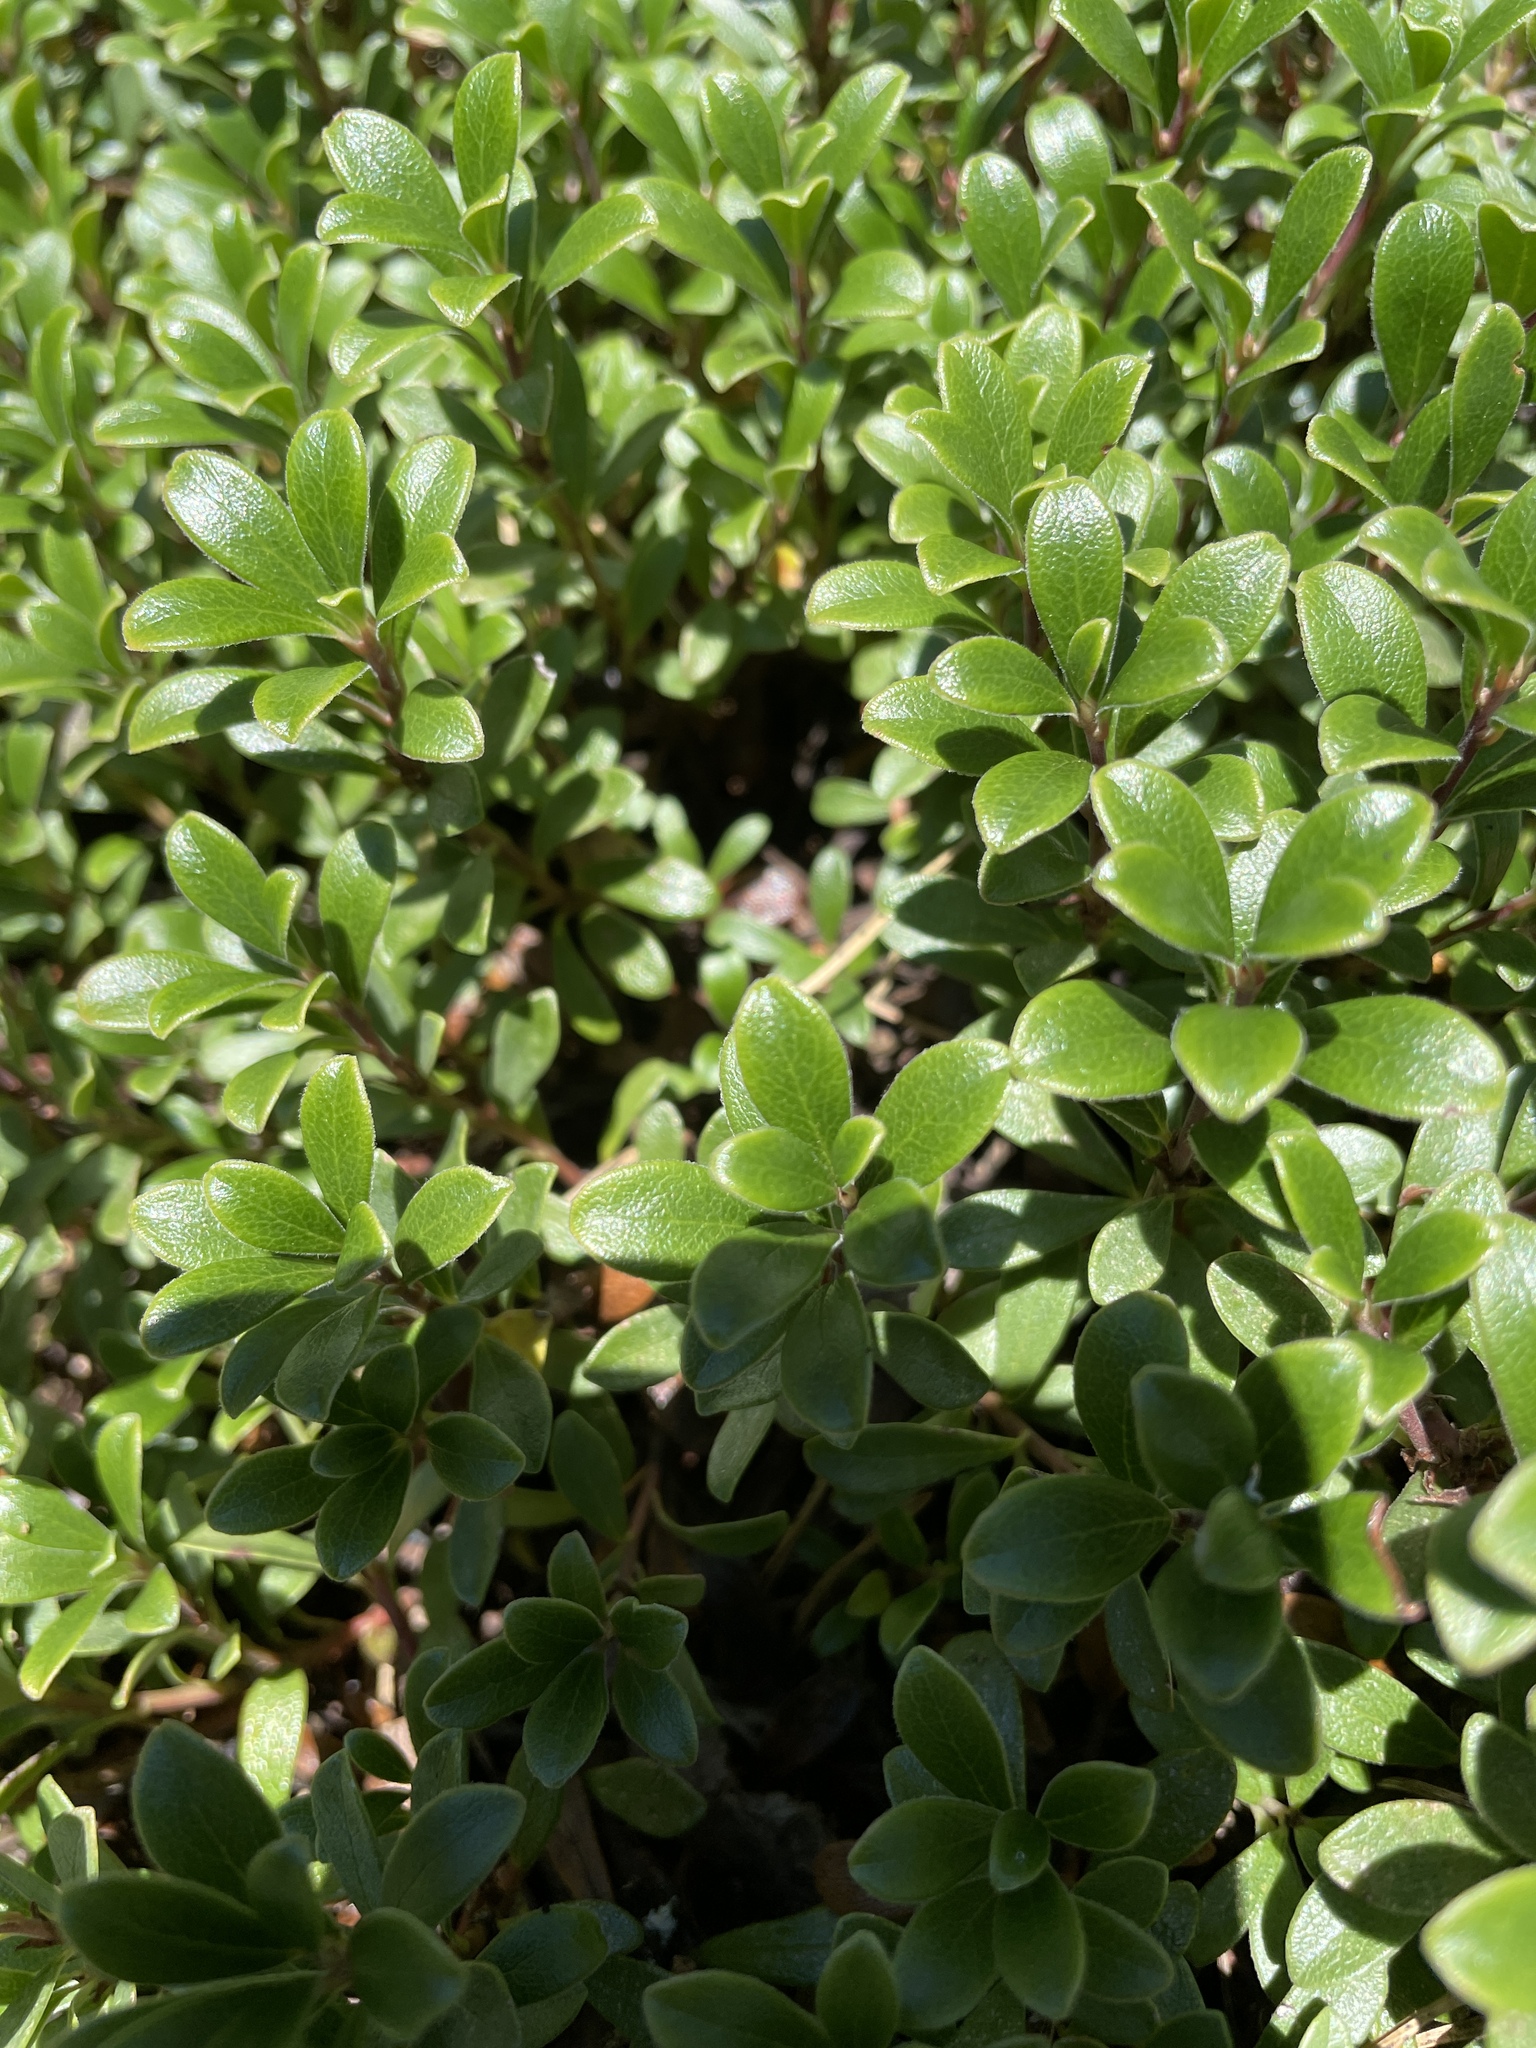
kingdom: Plantae
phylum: Tracheophyta
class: Magnoliopsida
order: Ericales
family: Ericaceae
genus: Arctostaphylos
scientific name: Arctostaphylos uva-ursi
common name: Bearberry
